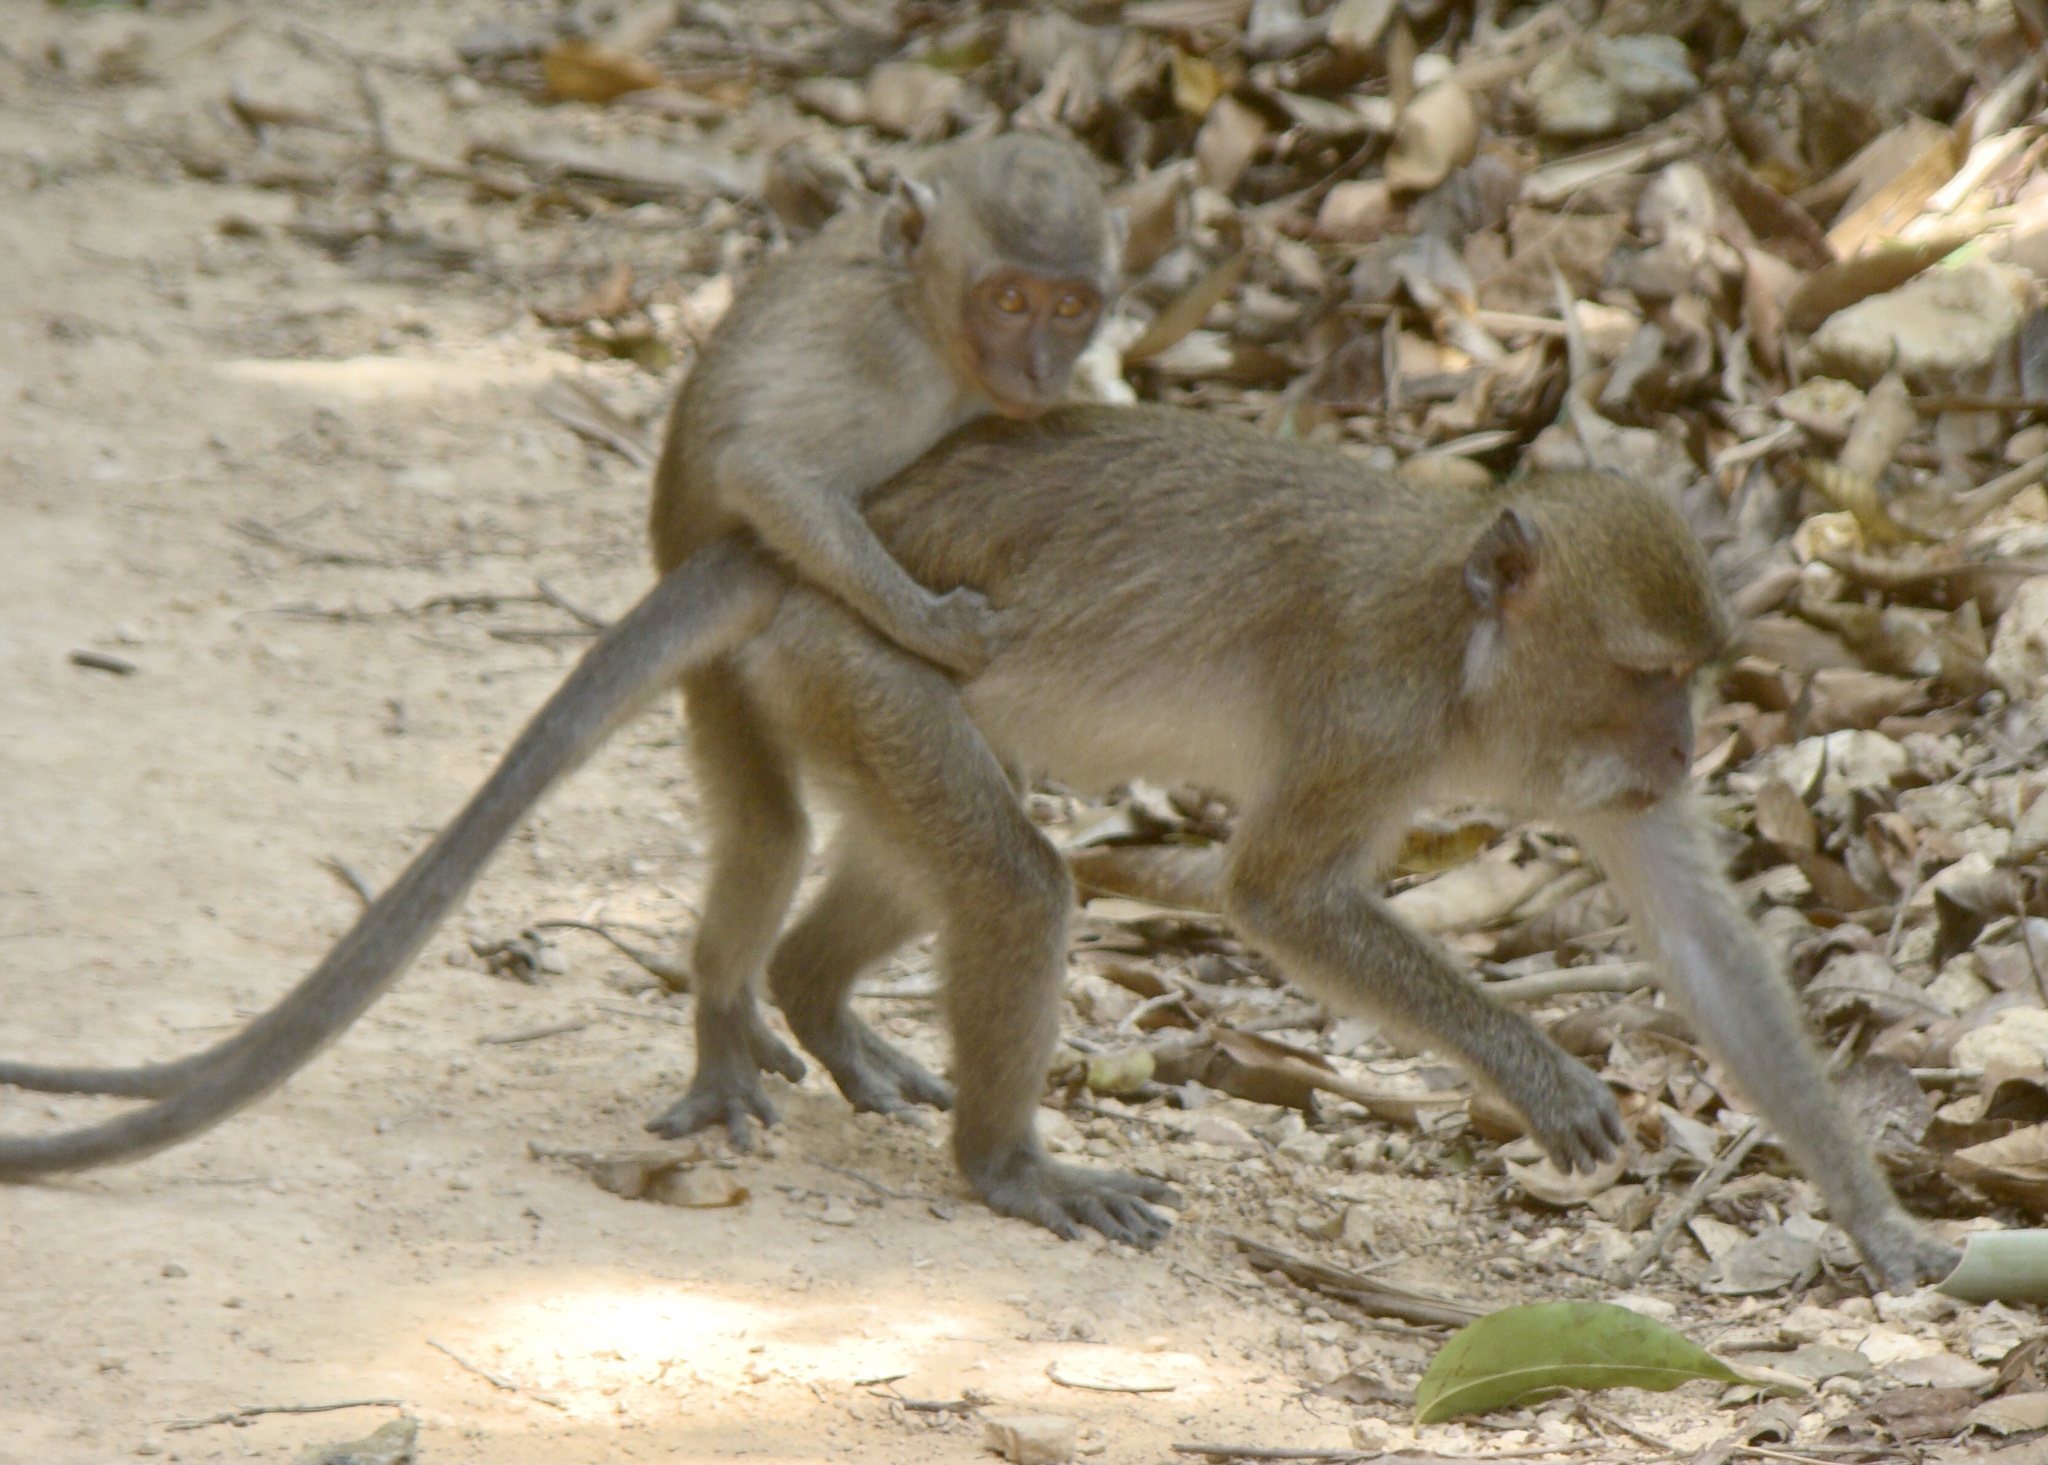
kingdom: Animalia
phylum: Chordata
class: Mammalia
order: Primates
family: Cercopithecidae
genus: Macaca
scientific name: Macaca fascicularis
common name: Crab-eating macaque
